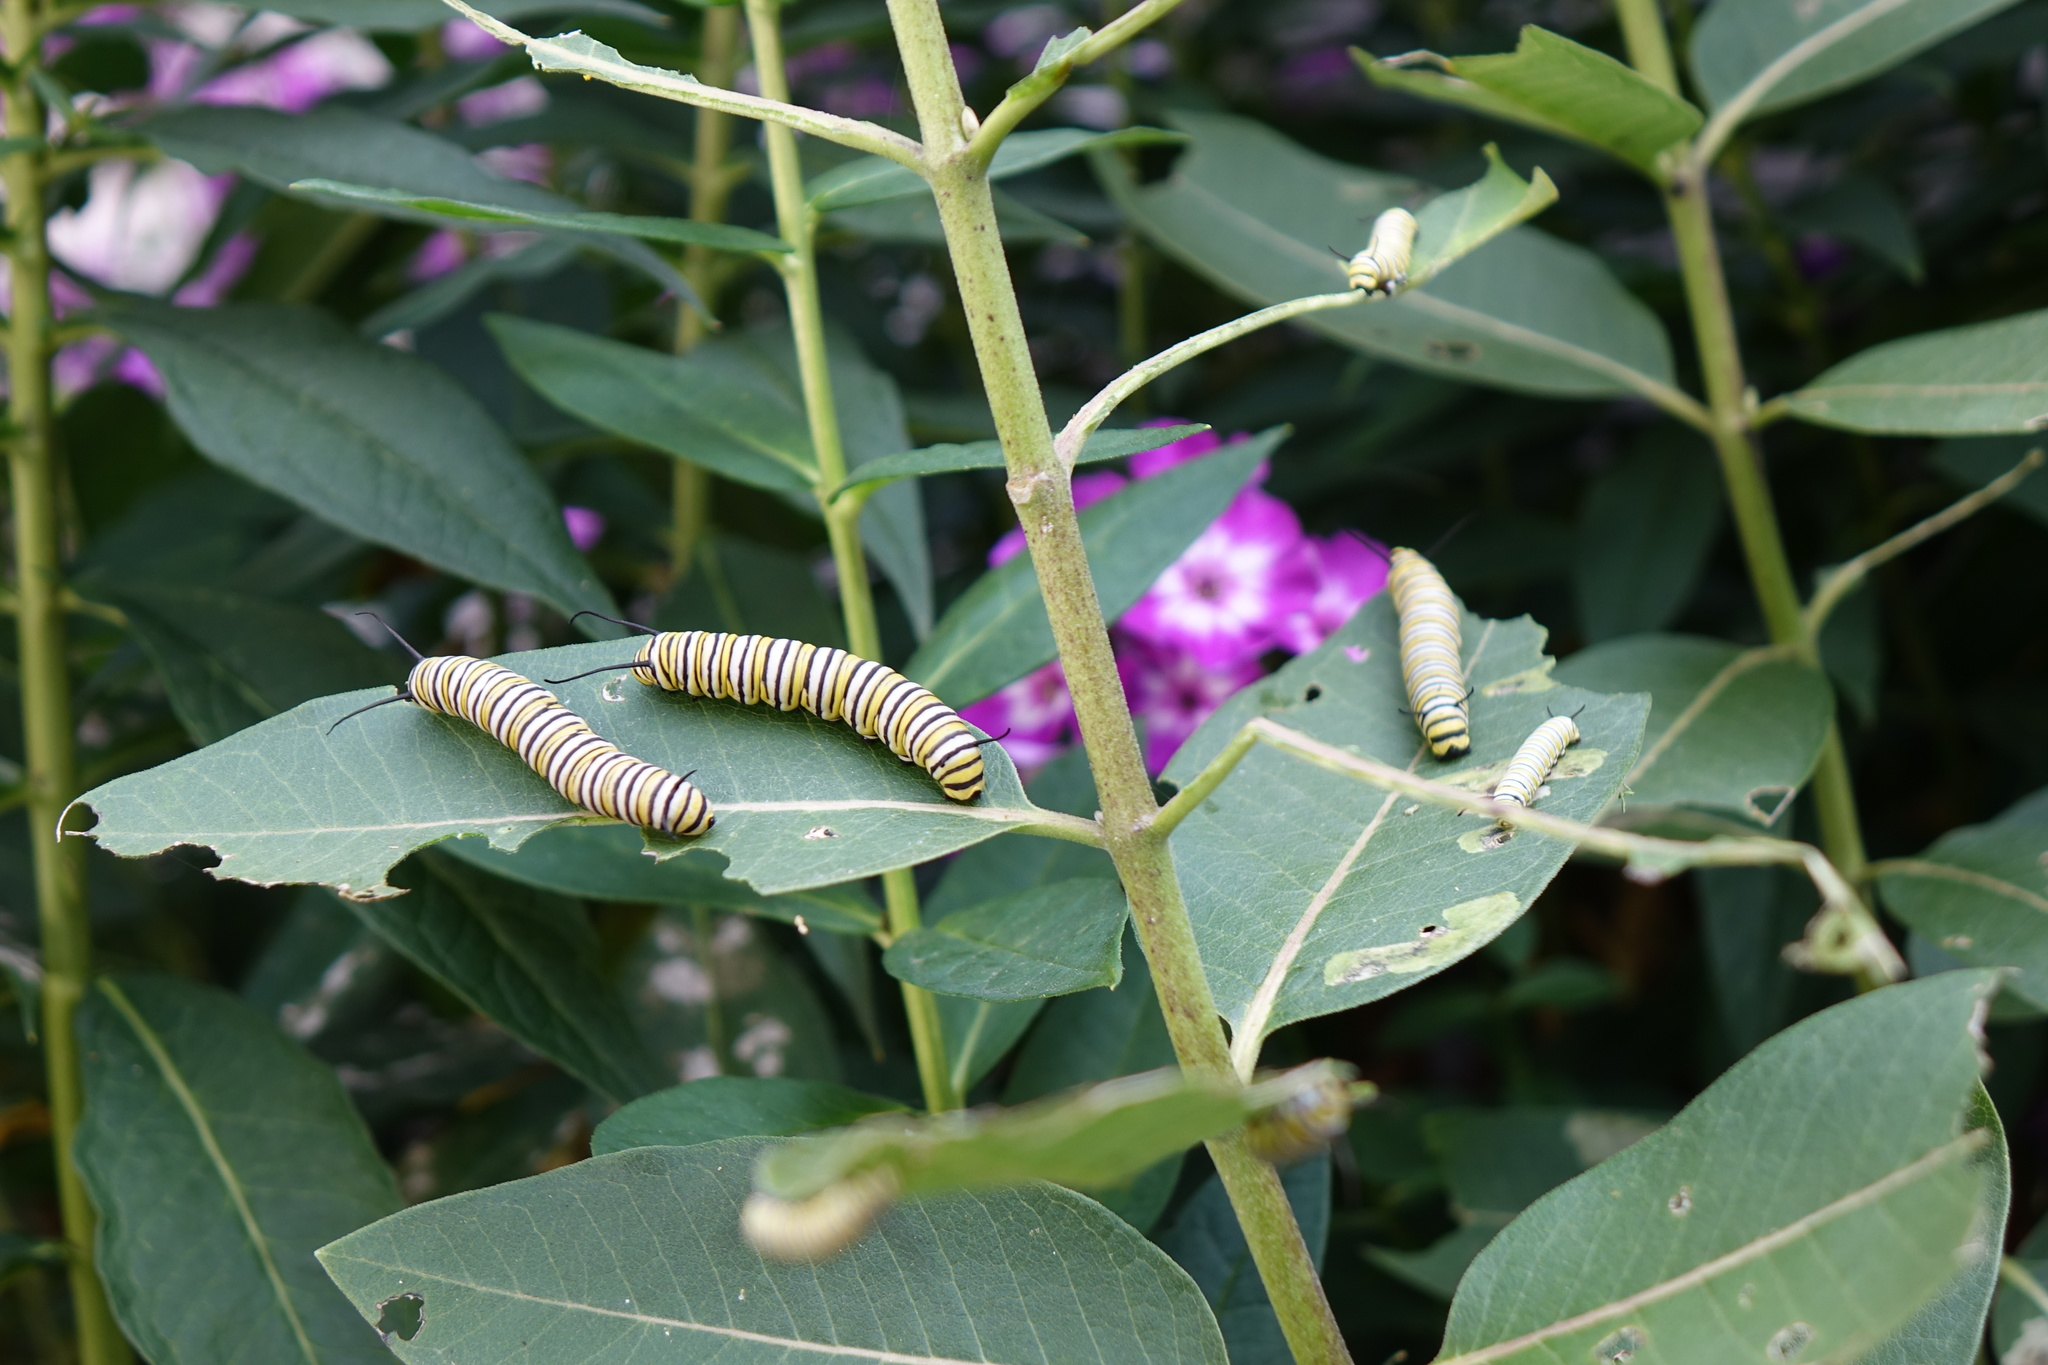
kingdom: Animalia
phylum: Arthropoda
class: Insecta
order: Lepidoptera
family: Nymphalidae
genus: Danaus
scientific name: Danaus plexippus
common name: Monarch
